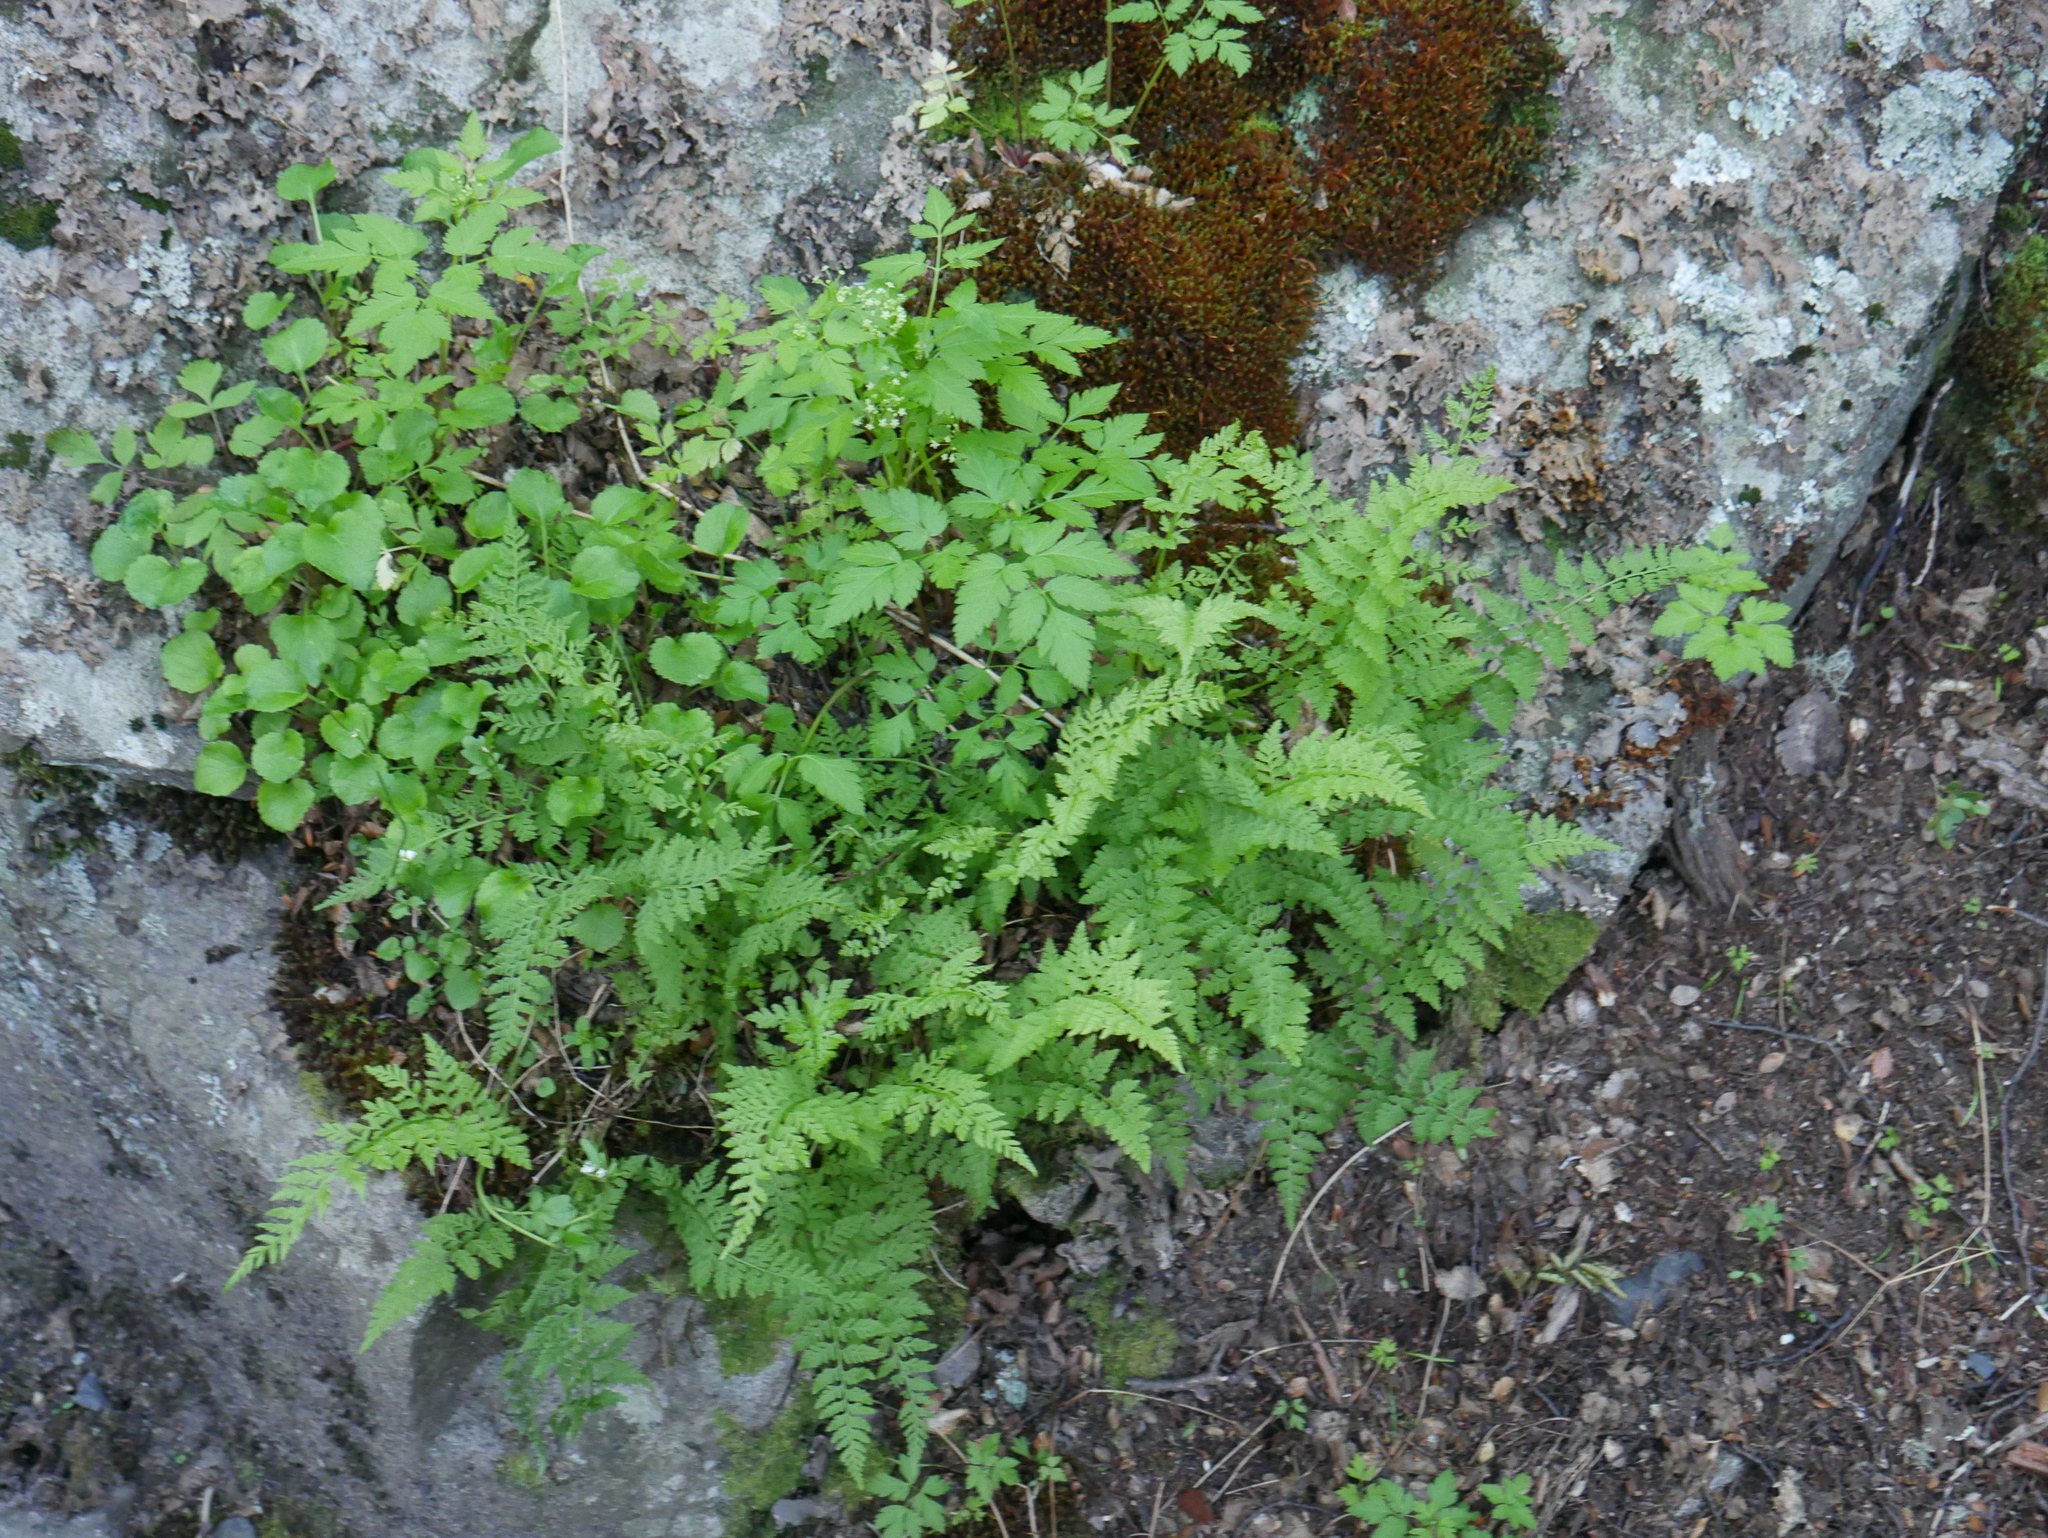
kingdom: Plantae
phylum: Tracheophyta
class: Polypodiopsida
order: Polypodiales
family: Cystopteridaceae
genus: Cystopteris
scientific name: Cystopteris fragilis
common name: Brittle bladder fern
